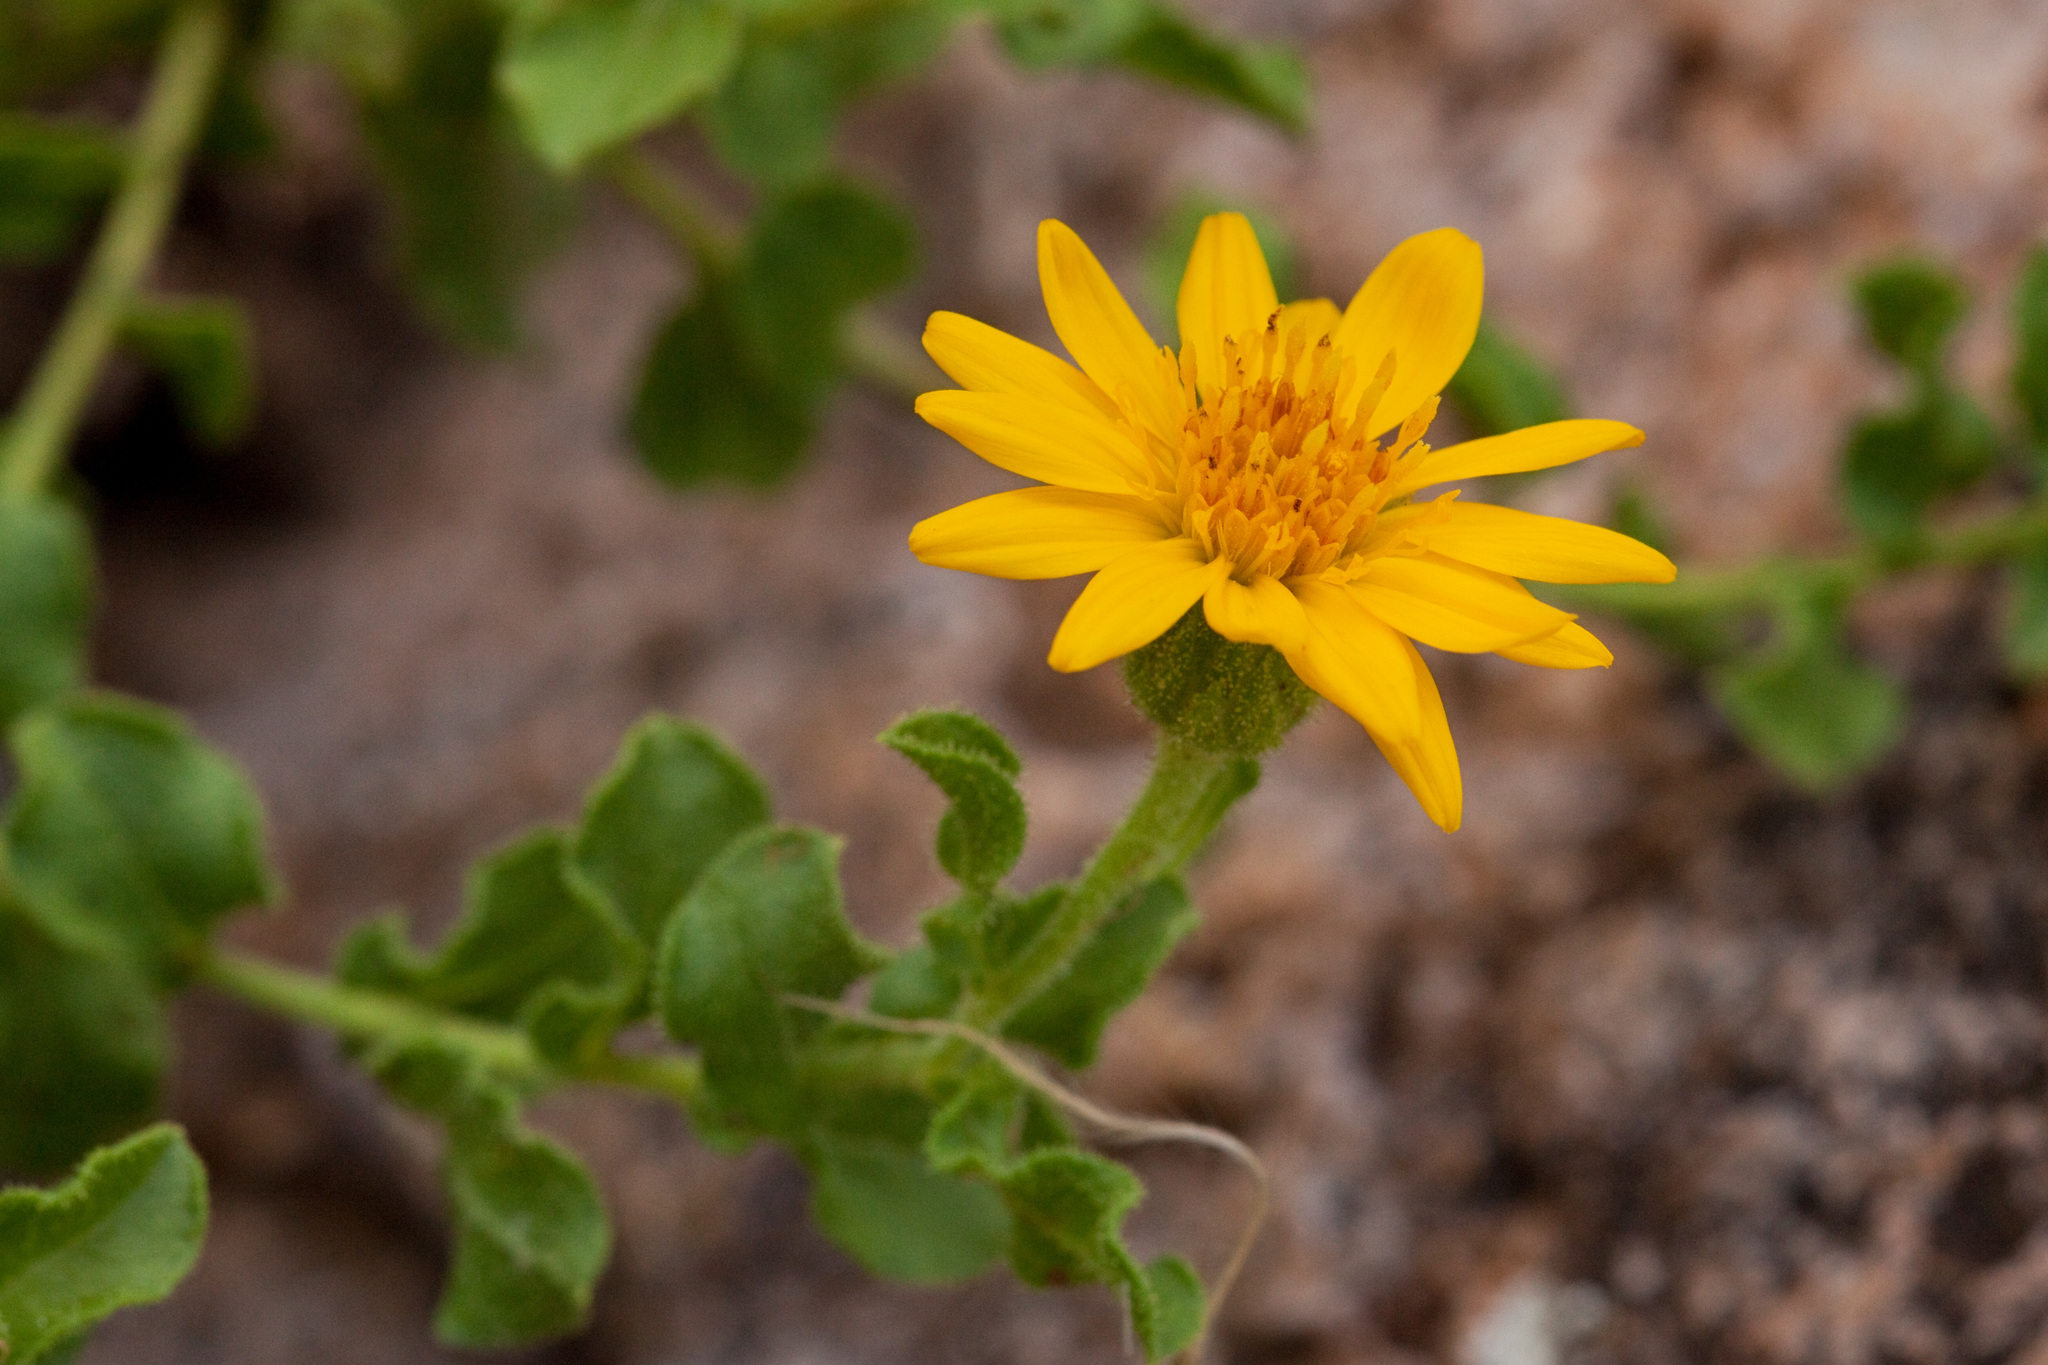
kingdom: Plantae
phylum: Tracheophyta
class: Magnoliopsida
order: Asterales
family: Asteraceae
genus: Heterotheca
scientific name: Heterotheca viscida
